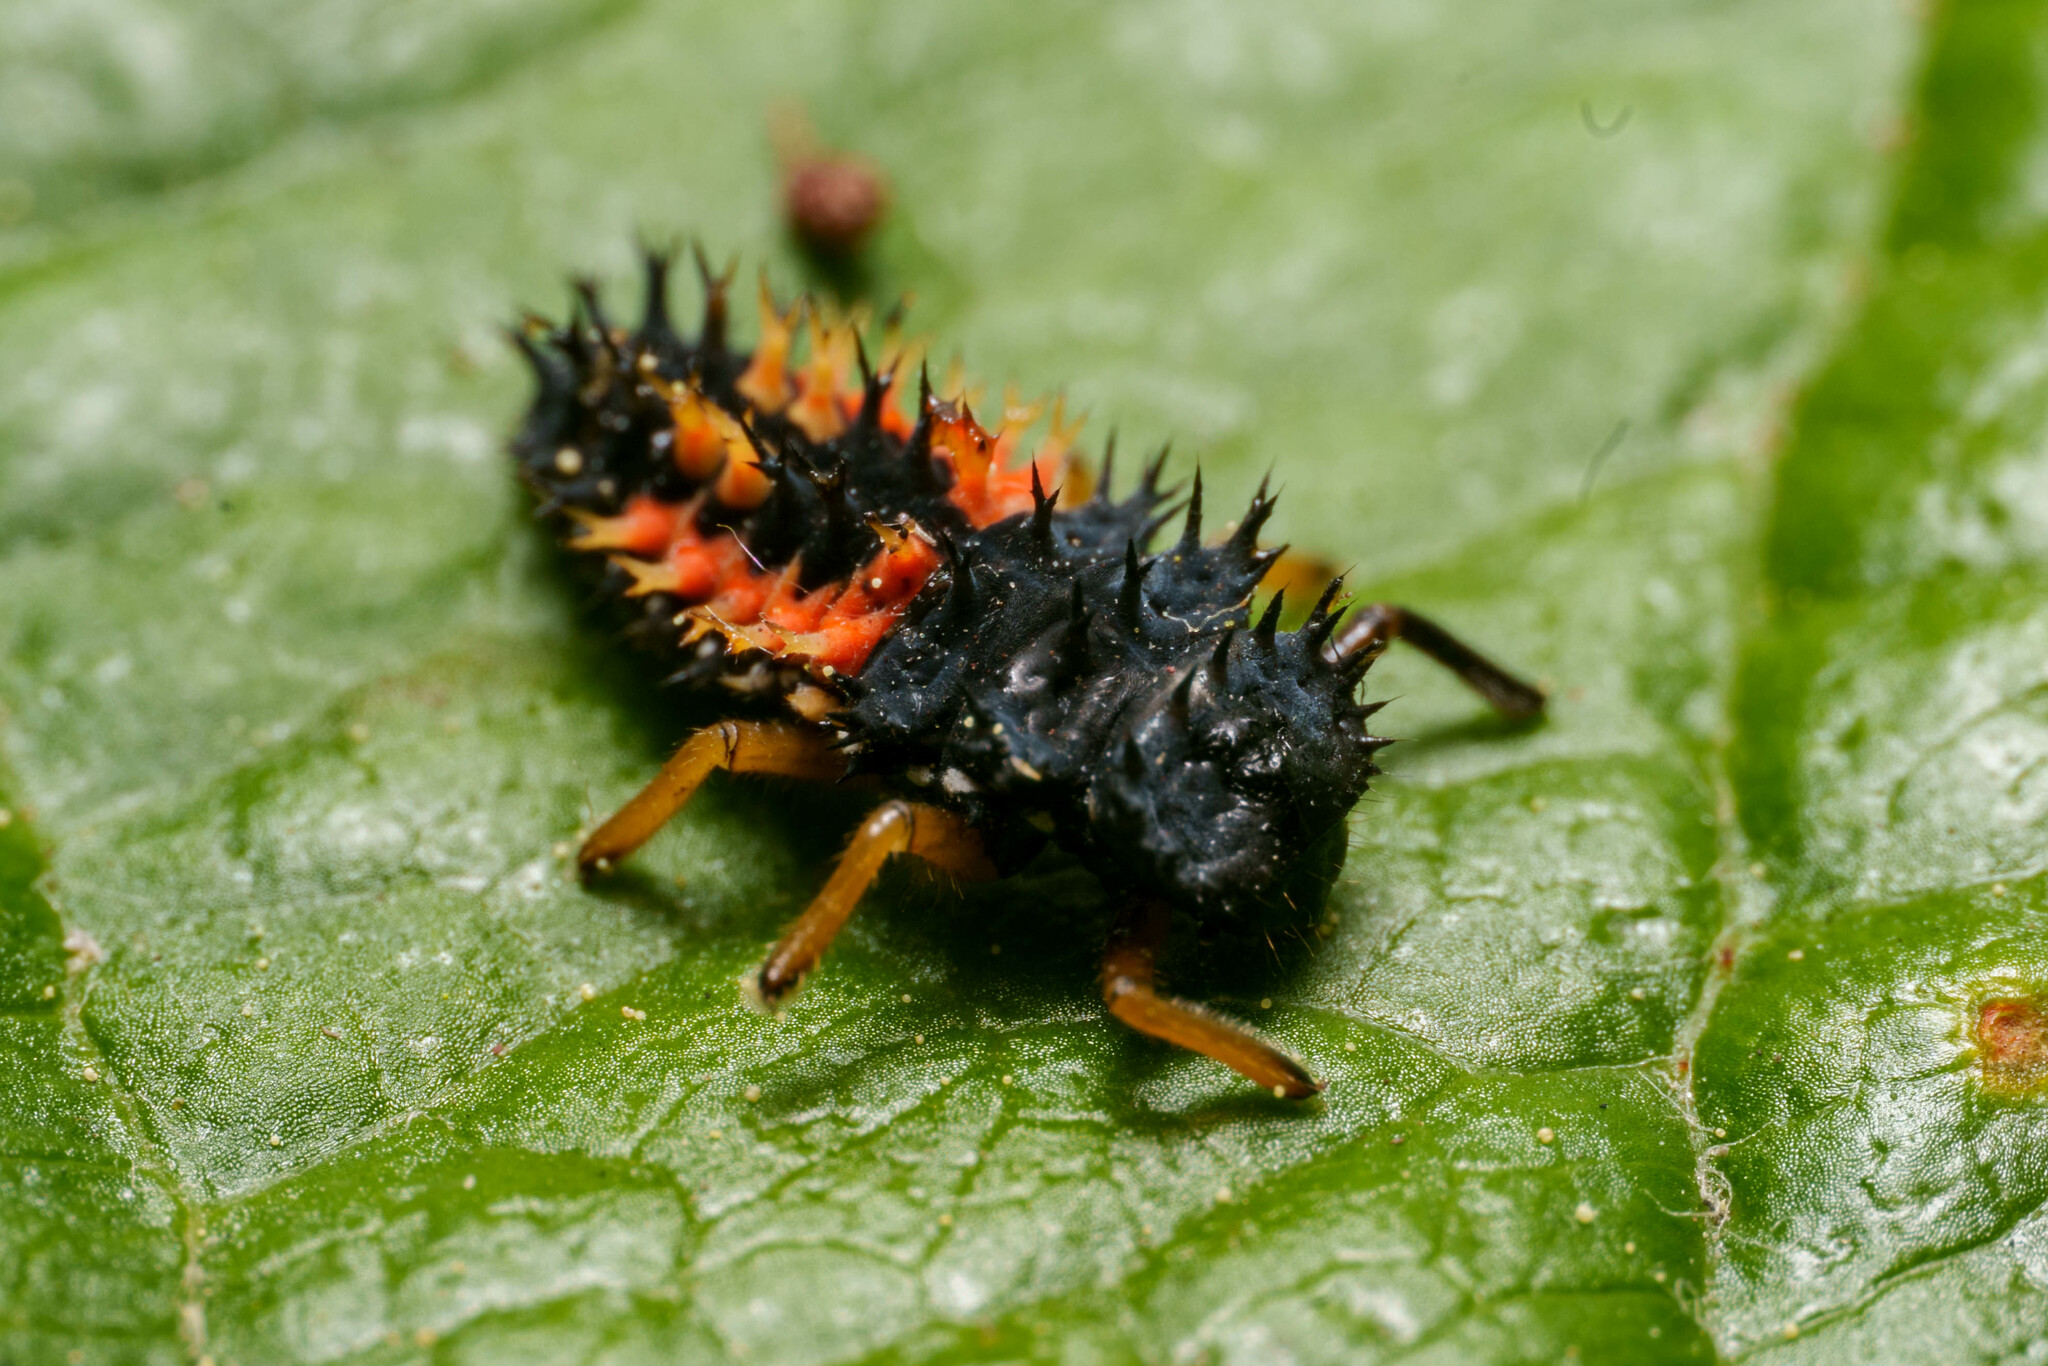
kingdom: Animalia
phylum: Arthropoda
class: Insecta
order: Coleoptera
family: Coccinellidae
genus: Harmonia
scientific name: Harmonia axyridis
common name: Harlequin ladybird
